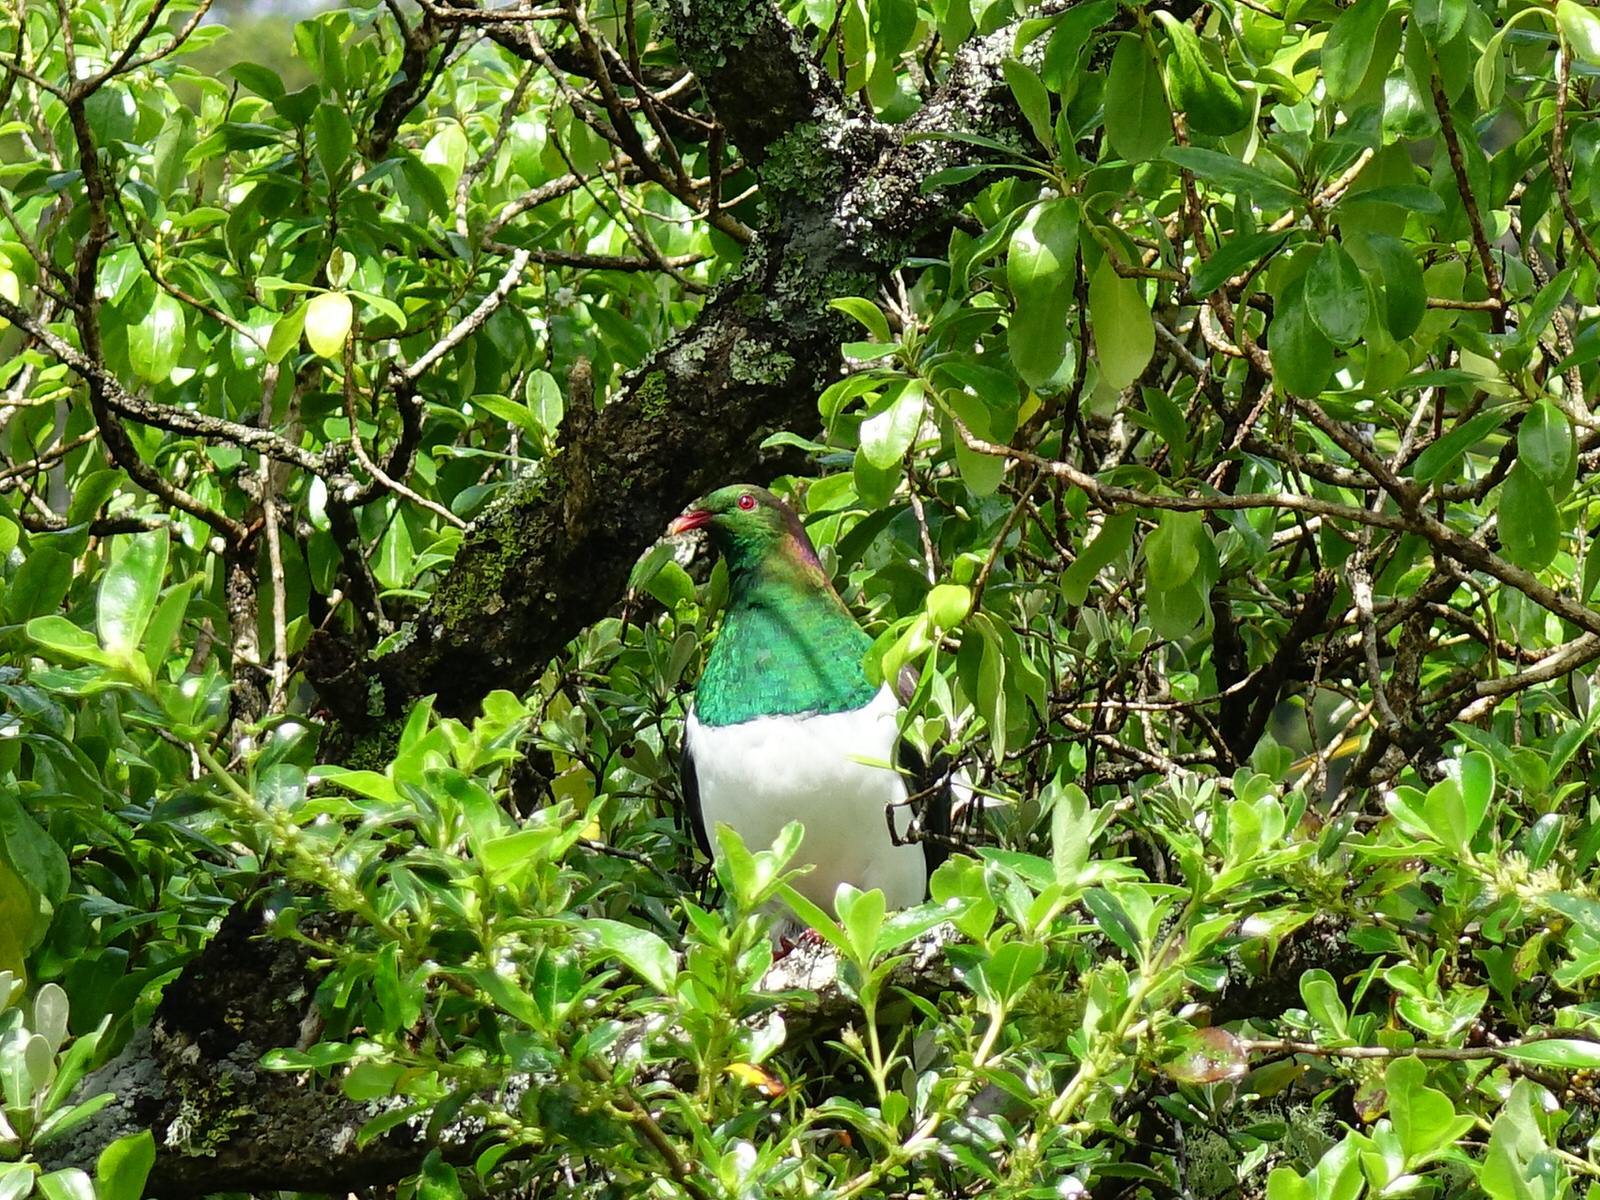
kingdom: Animalia
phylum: Chordata
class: Aves
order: Columbiformes
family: Columbidae
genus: Hemiphaga
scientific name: Hemiphaga novaeseelandiae
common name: New zealand pigeon
